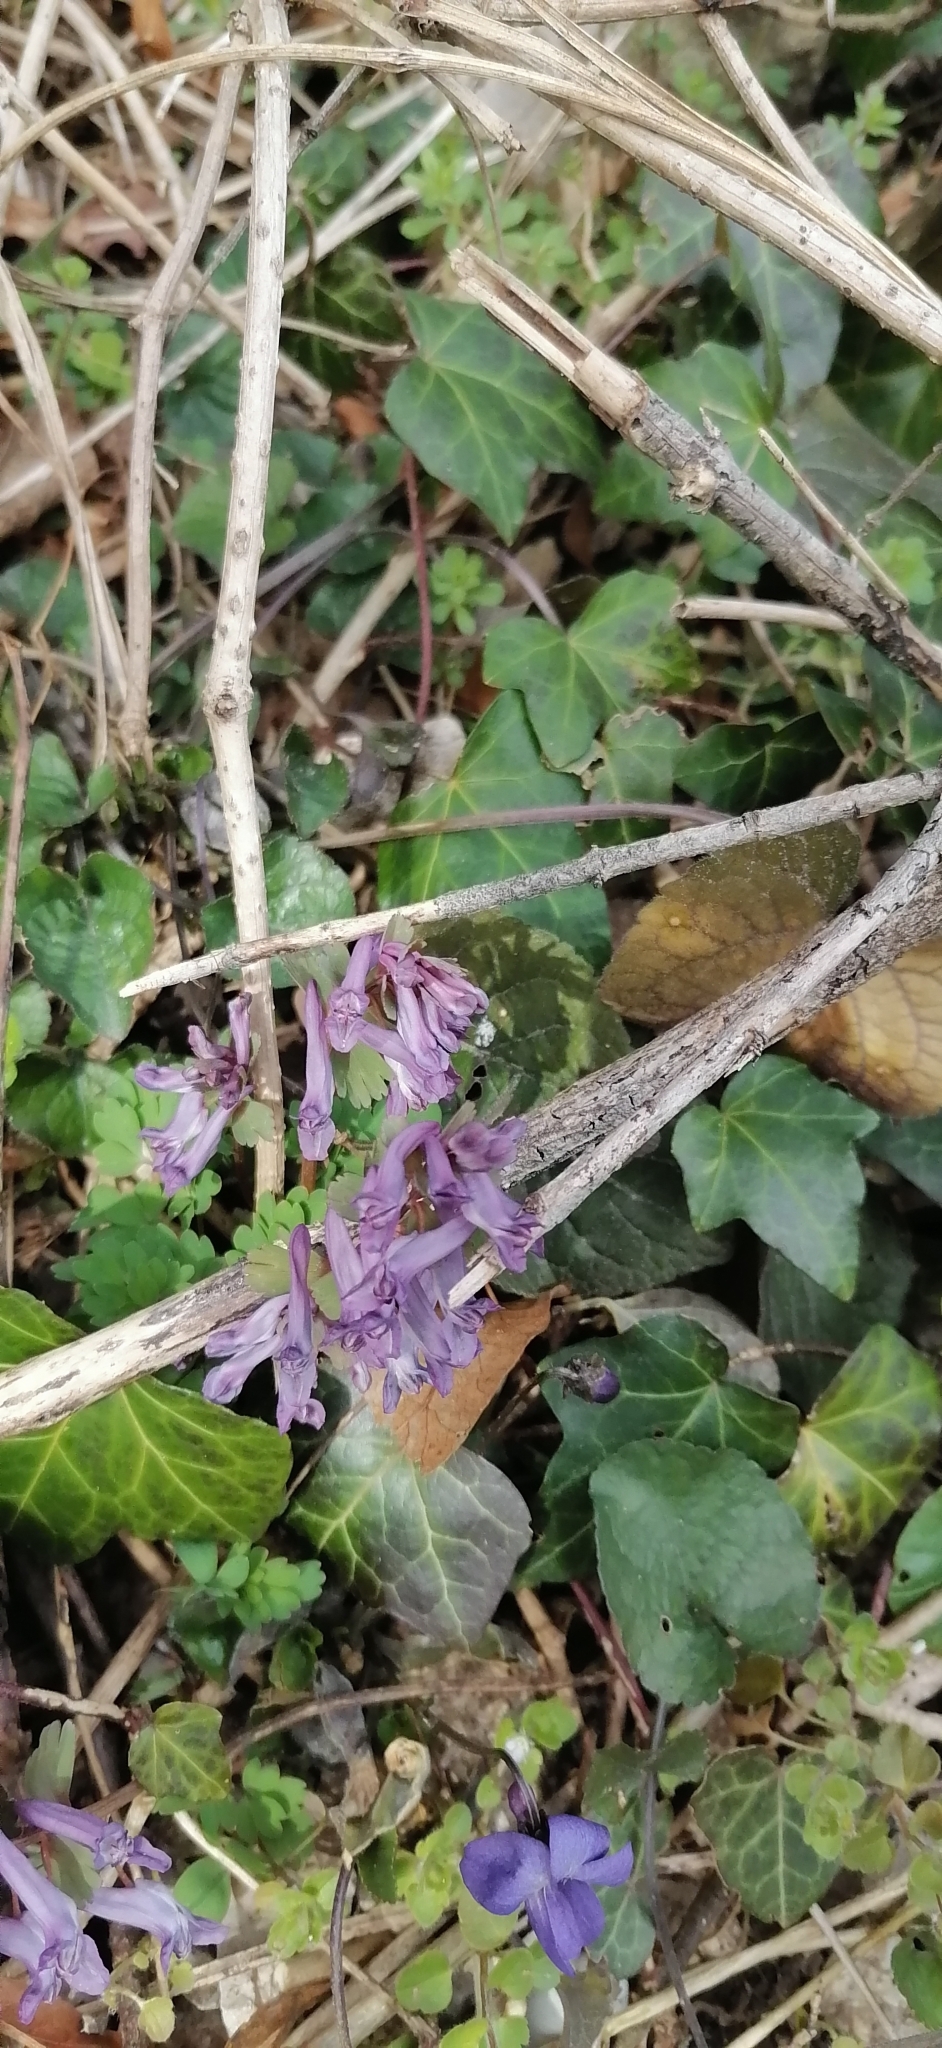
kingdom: Plantae
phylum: Tracheophyta
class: Magnoliopsida
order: Ranunculales
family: Papaveraceae
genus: Corydalis
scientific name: Corydalis solida
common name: Bird-in-a-bush
